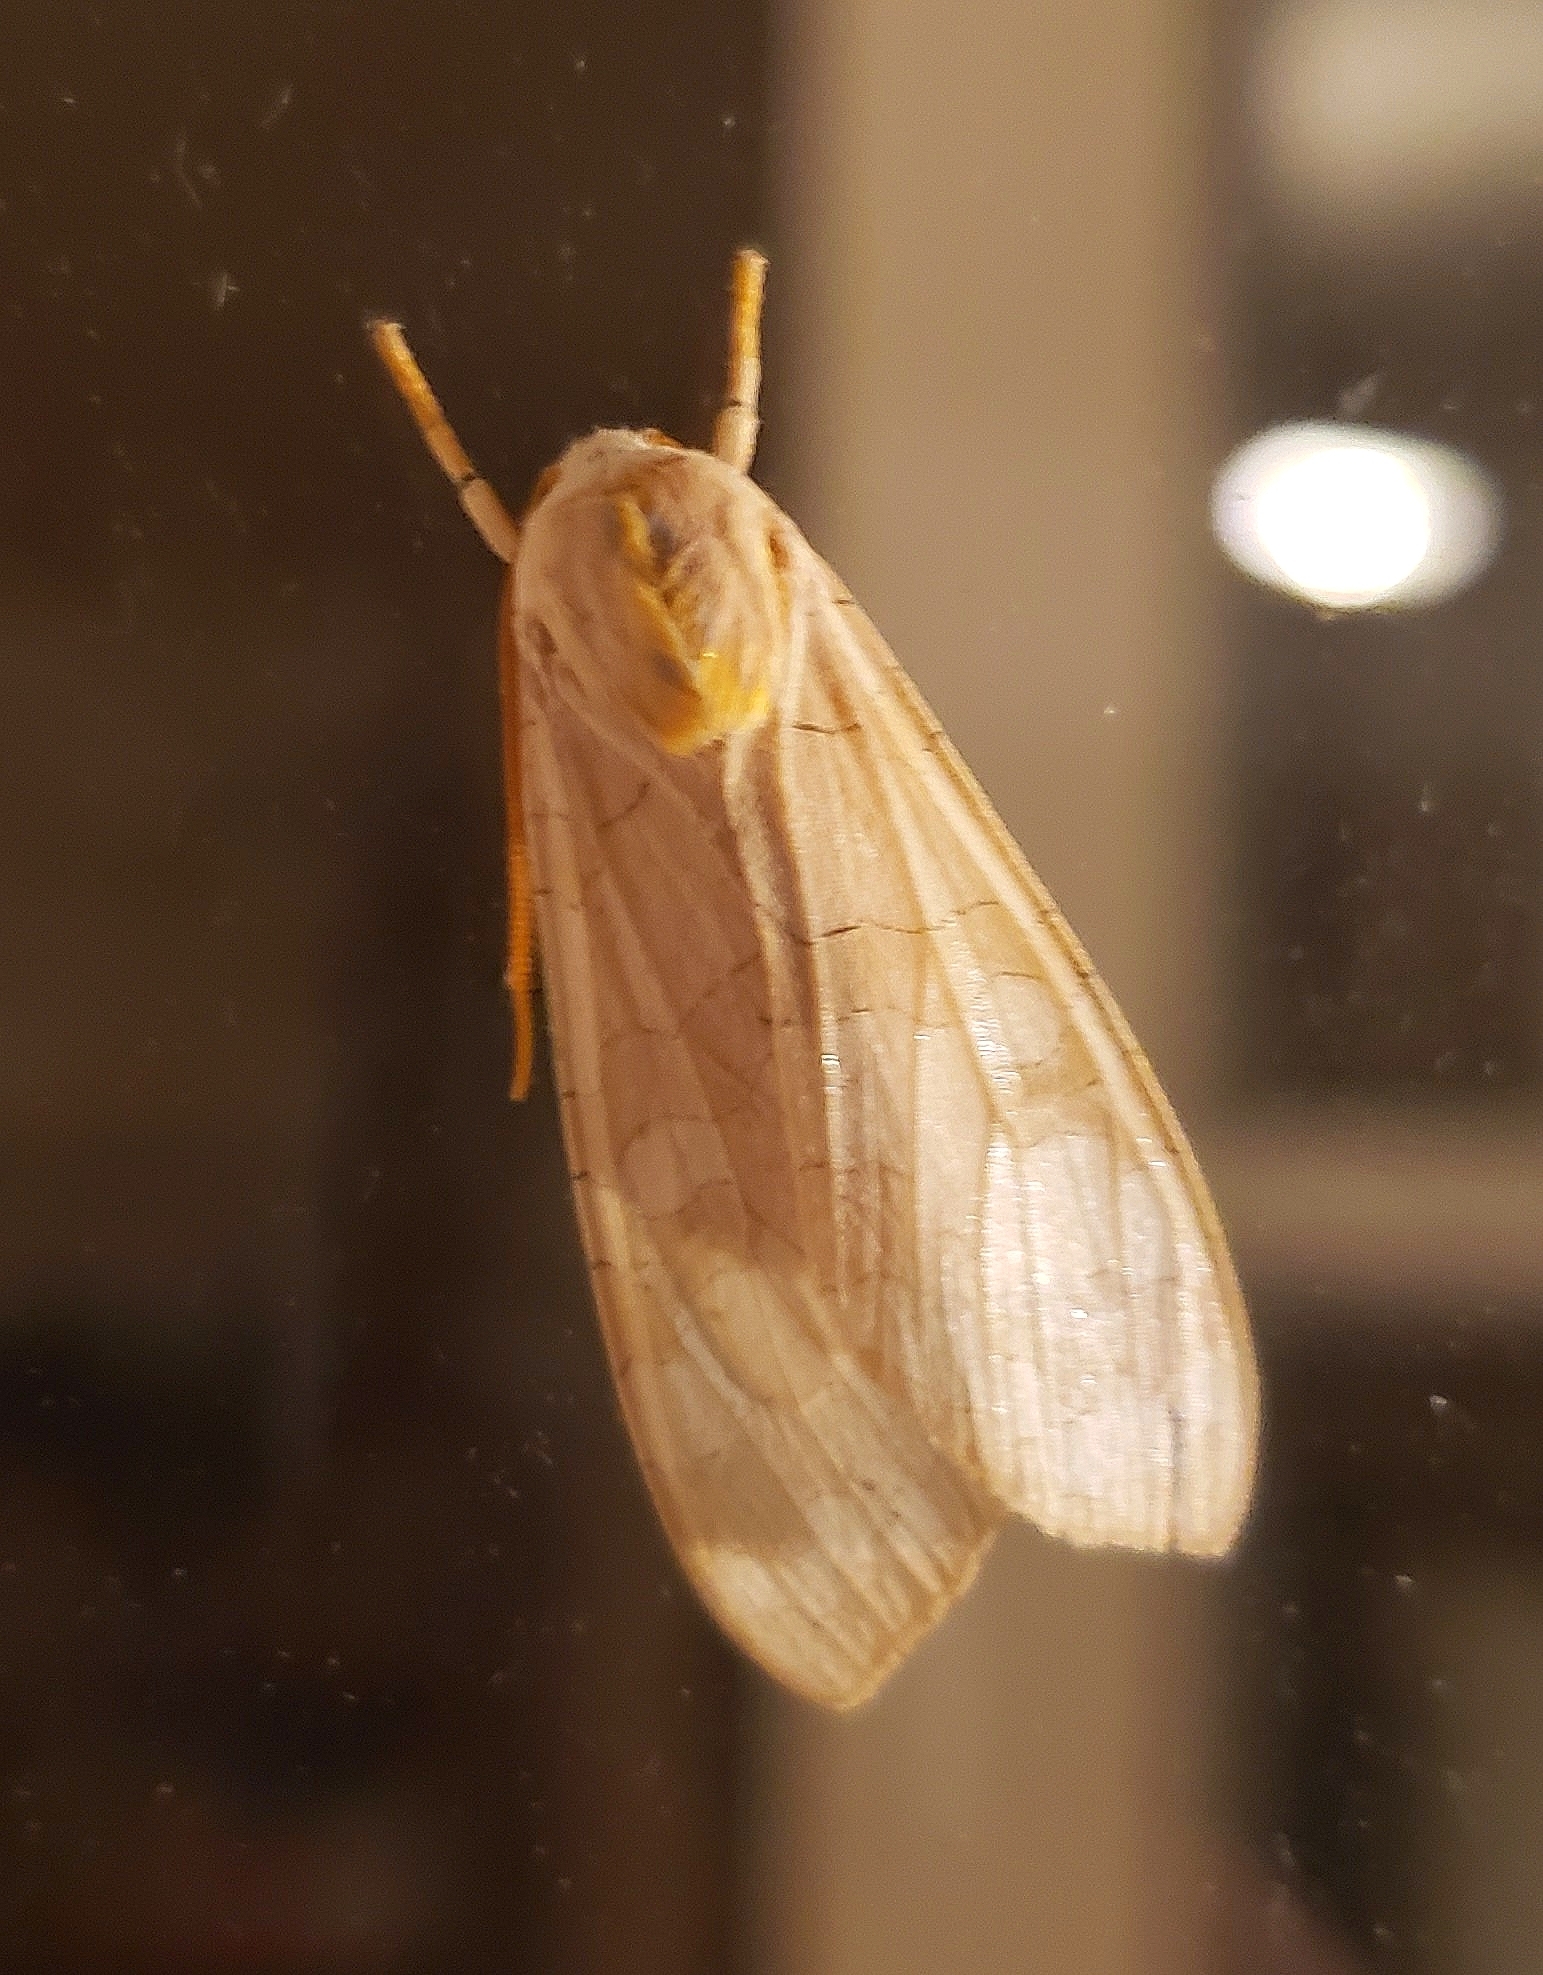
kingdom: Animalia
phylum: Arthropoda
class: Insecta
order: Lepidoptera
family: Erebidae
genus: Halysidota
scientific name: Halysidota
